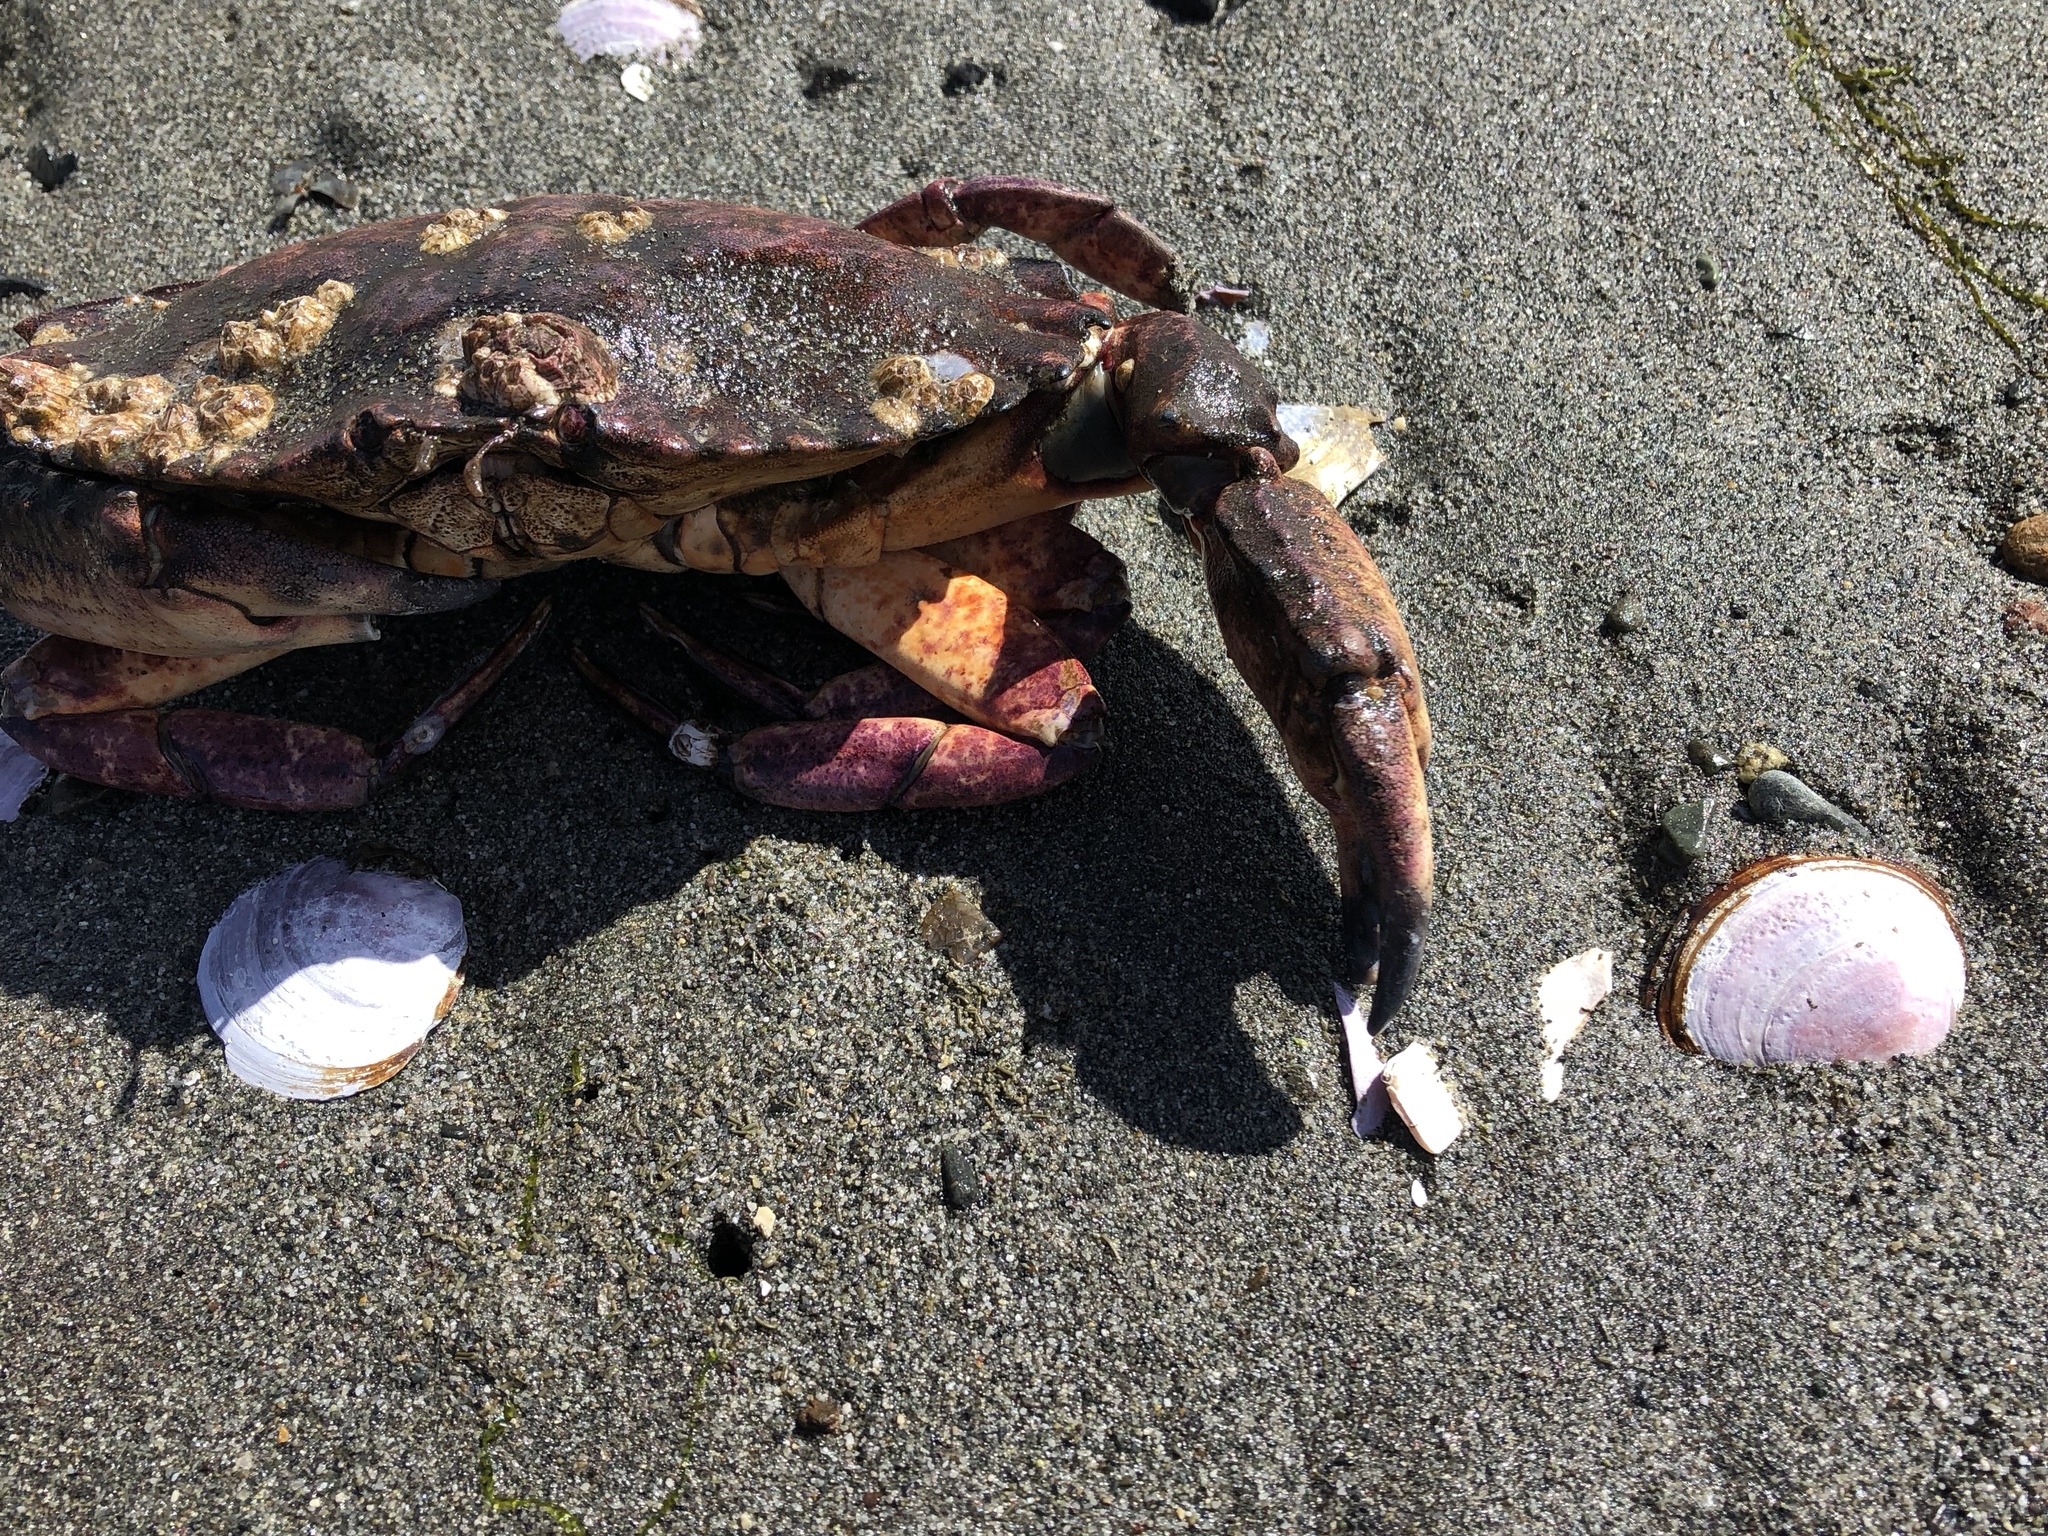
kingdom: Animalia
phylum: Arthropoda
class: Malacostraca
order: Decapoda
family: Cancridae
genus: Cancer
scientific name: Cancer productus
